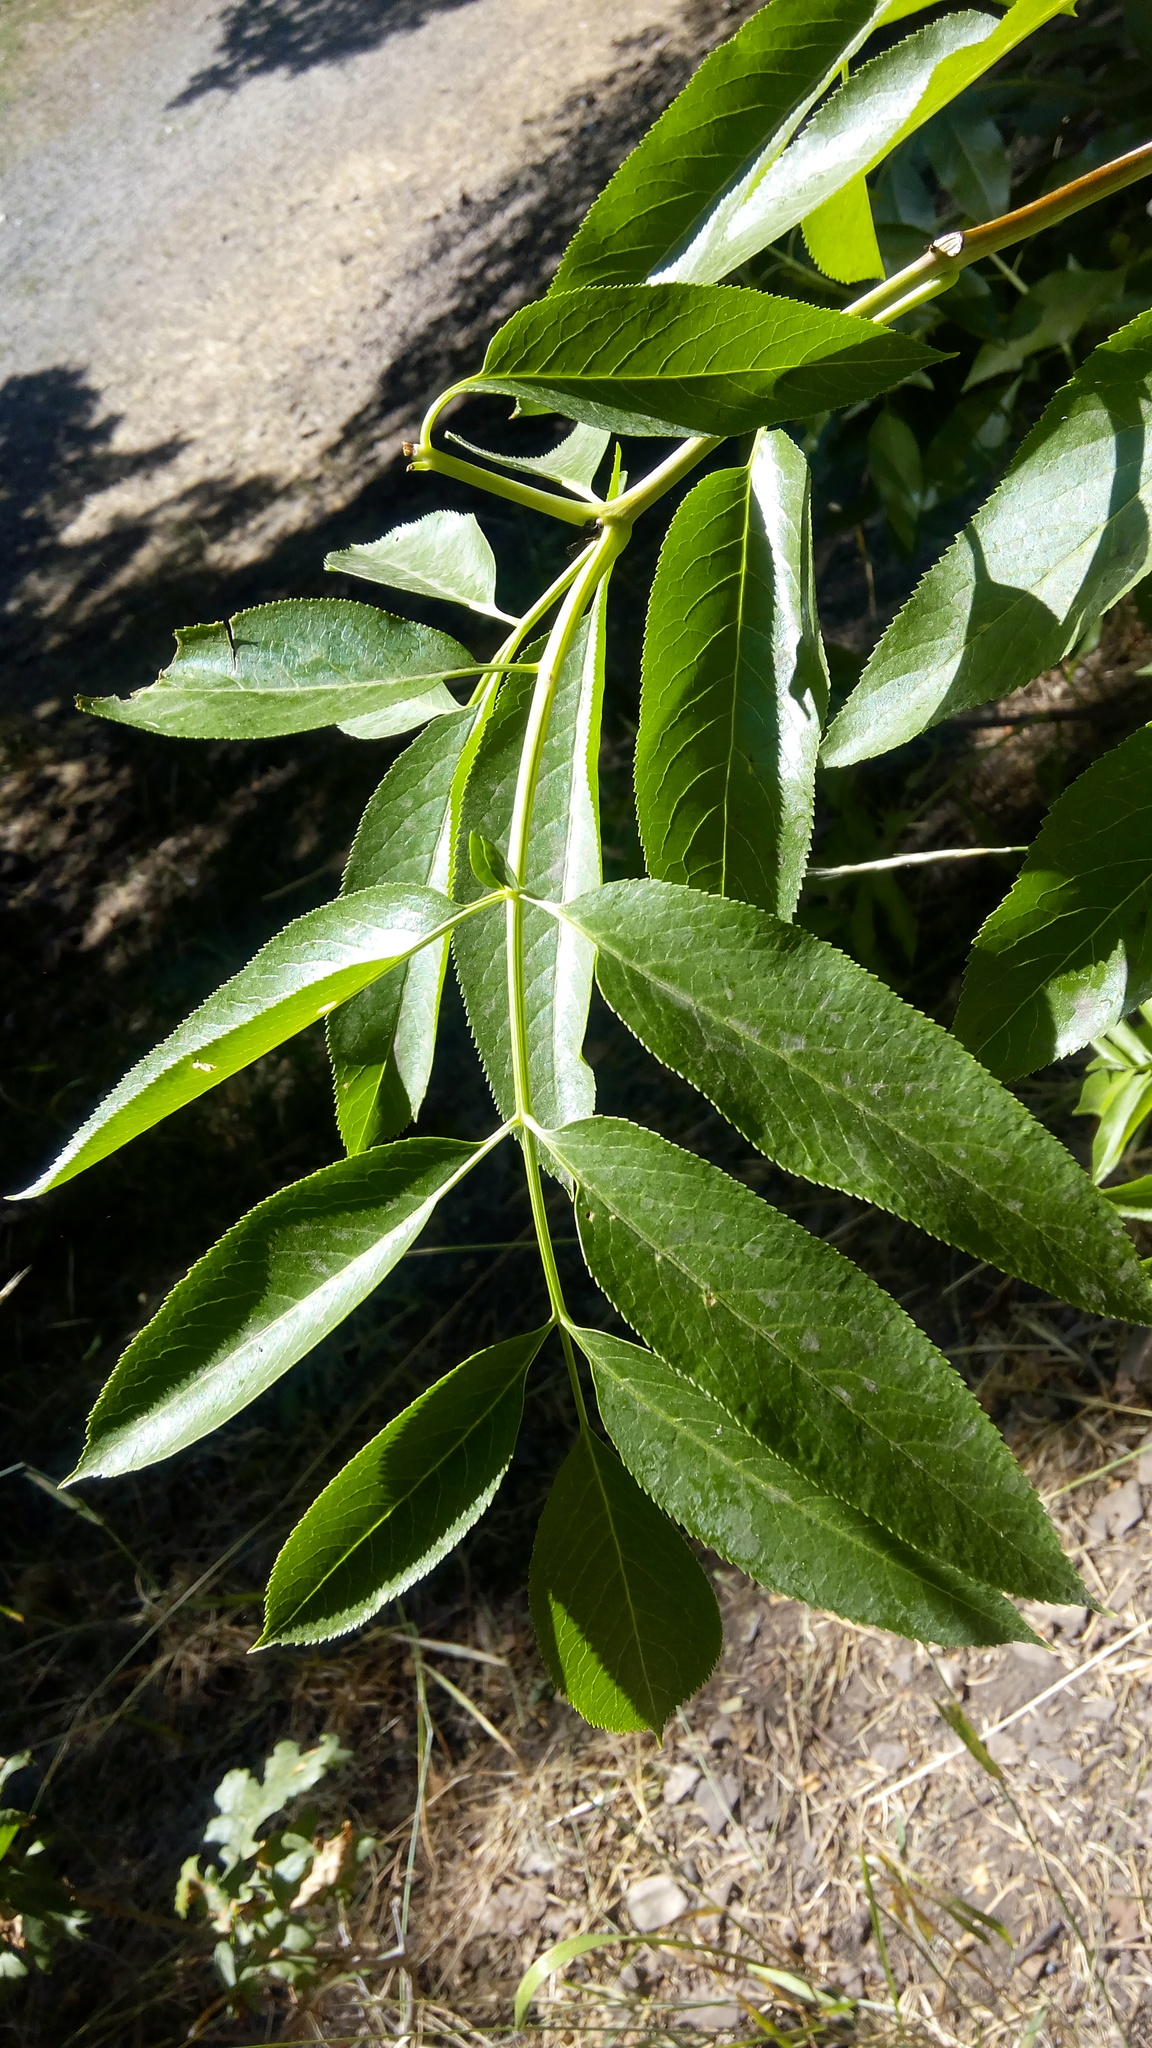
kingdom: Plantae
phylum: Tracheophyta
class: Magnoliopsida
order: Dipsacales
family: Viburnaceae
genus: Sambucus
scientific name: Sambucus cerulea
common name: Blue elder
